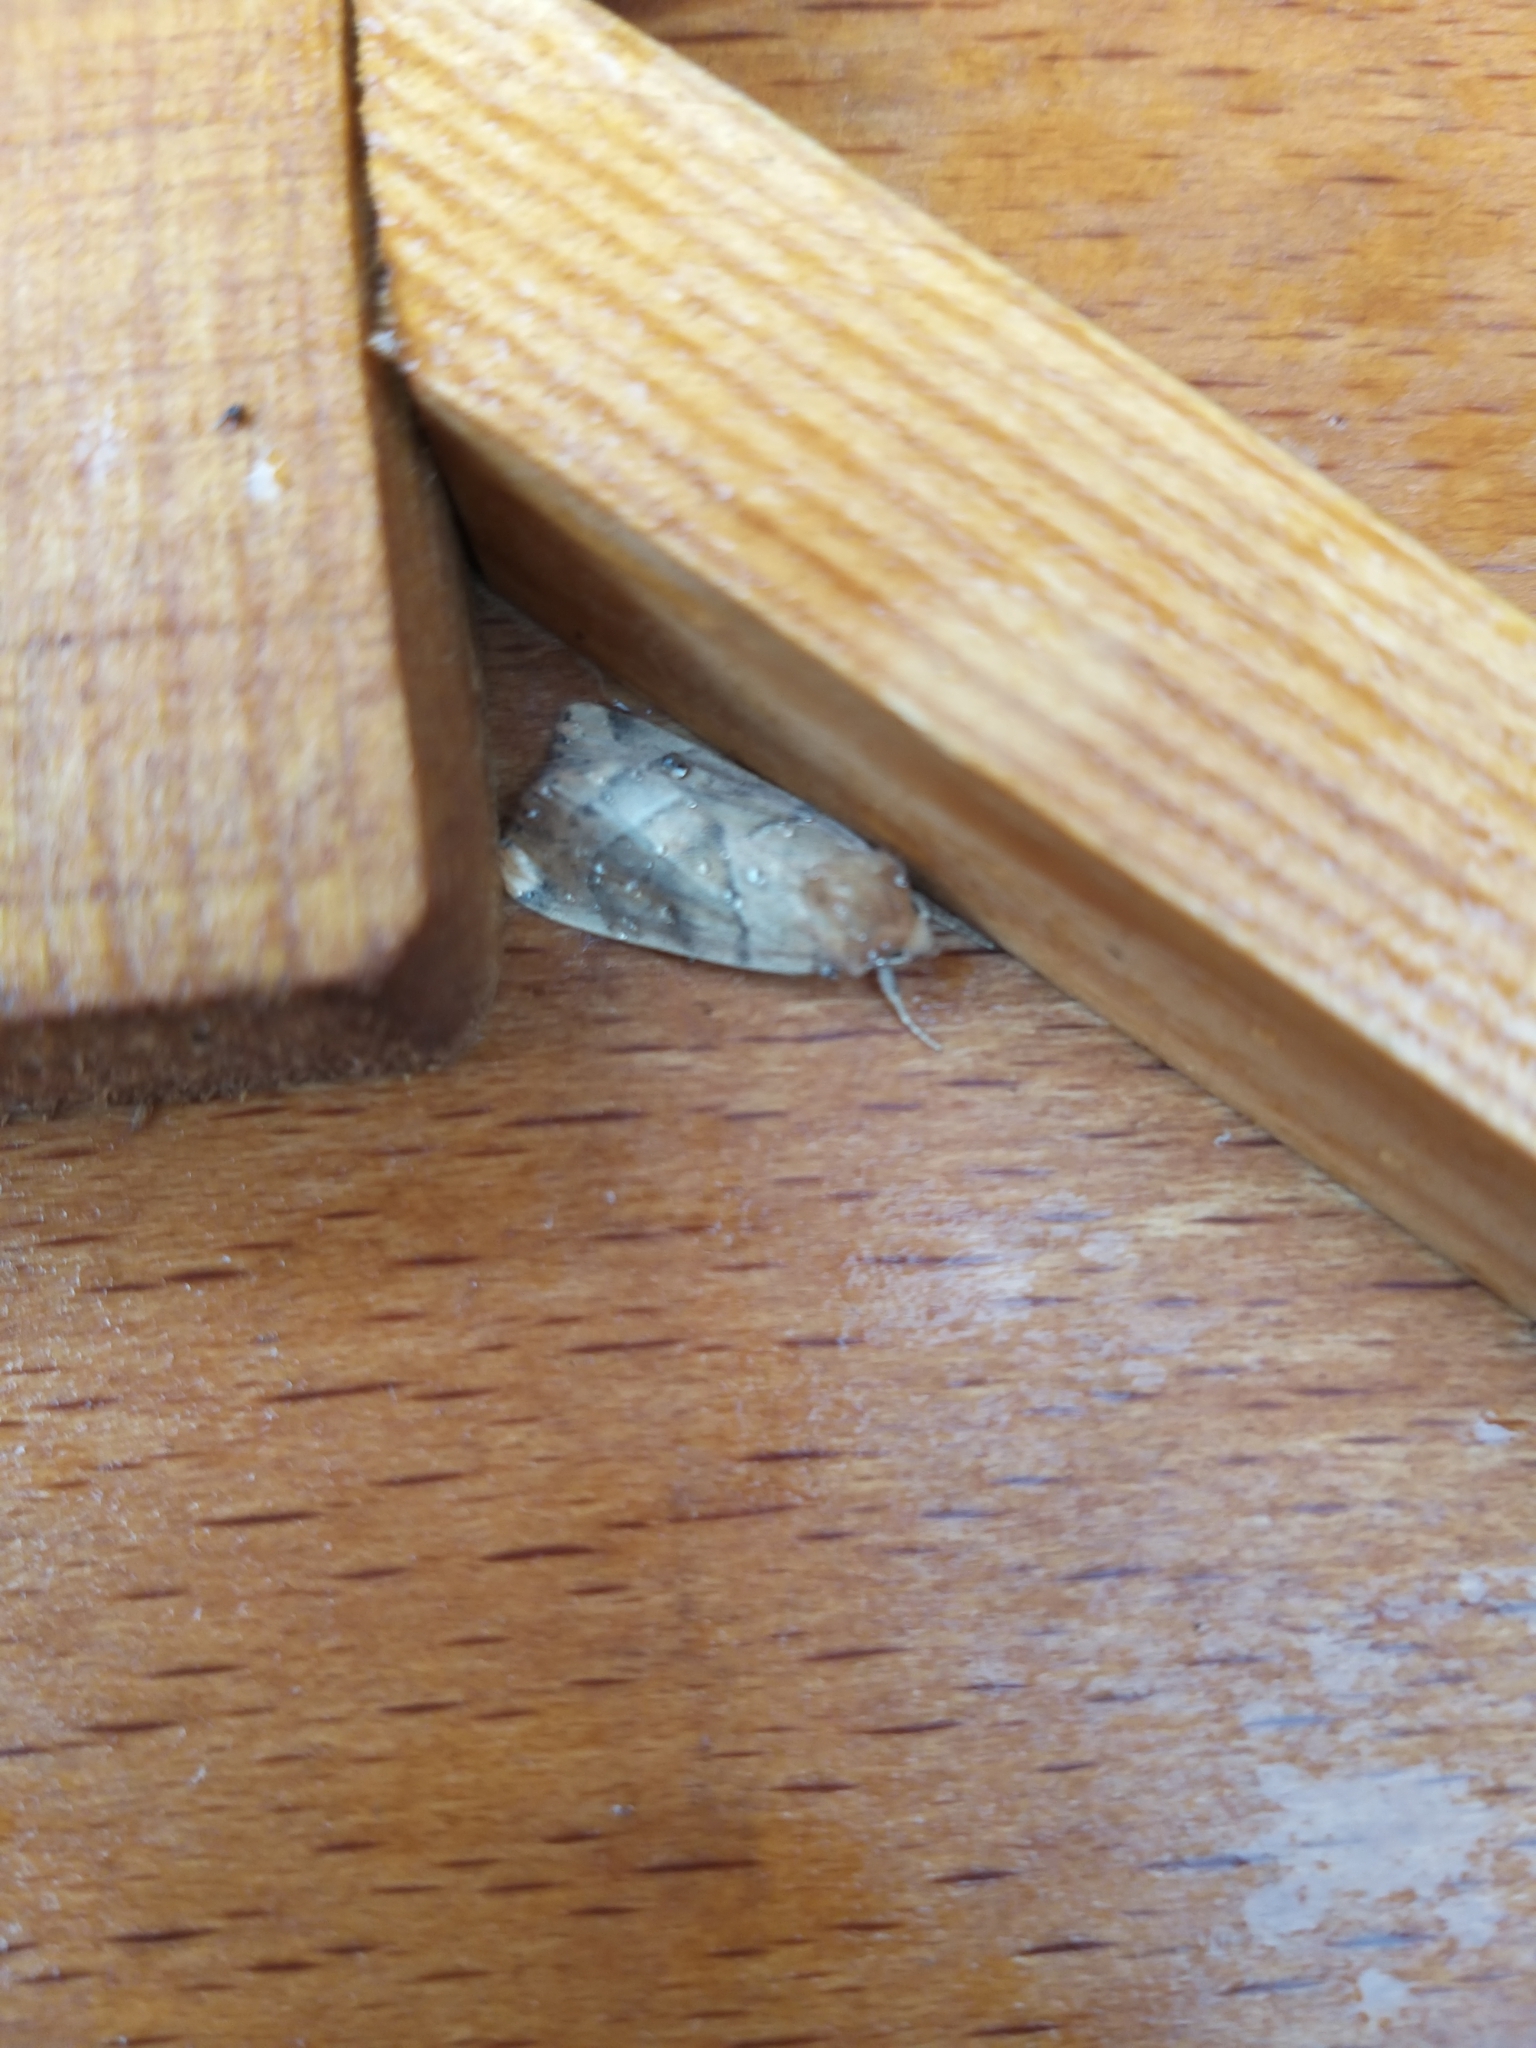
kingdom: Animalia
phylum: Arthropoda
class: Insecta
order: Lepidoptera
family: Noctuidae
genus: Cosmia
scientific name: Cosmia trapezina
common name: Dun-bar
